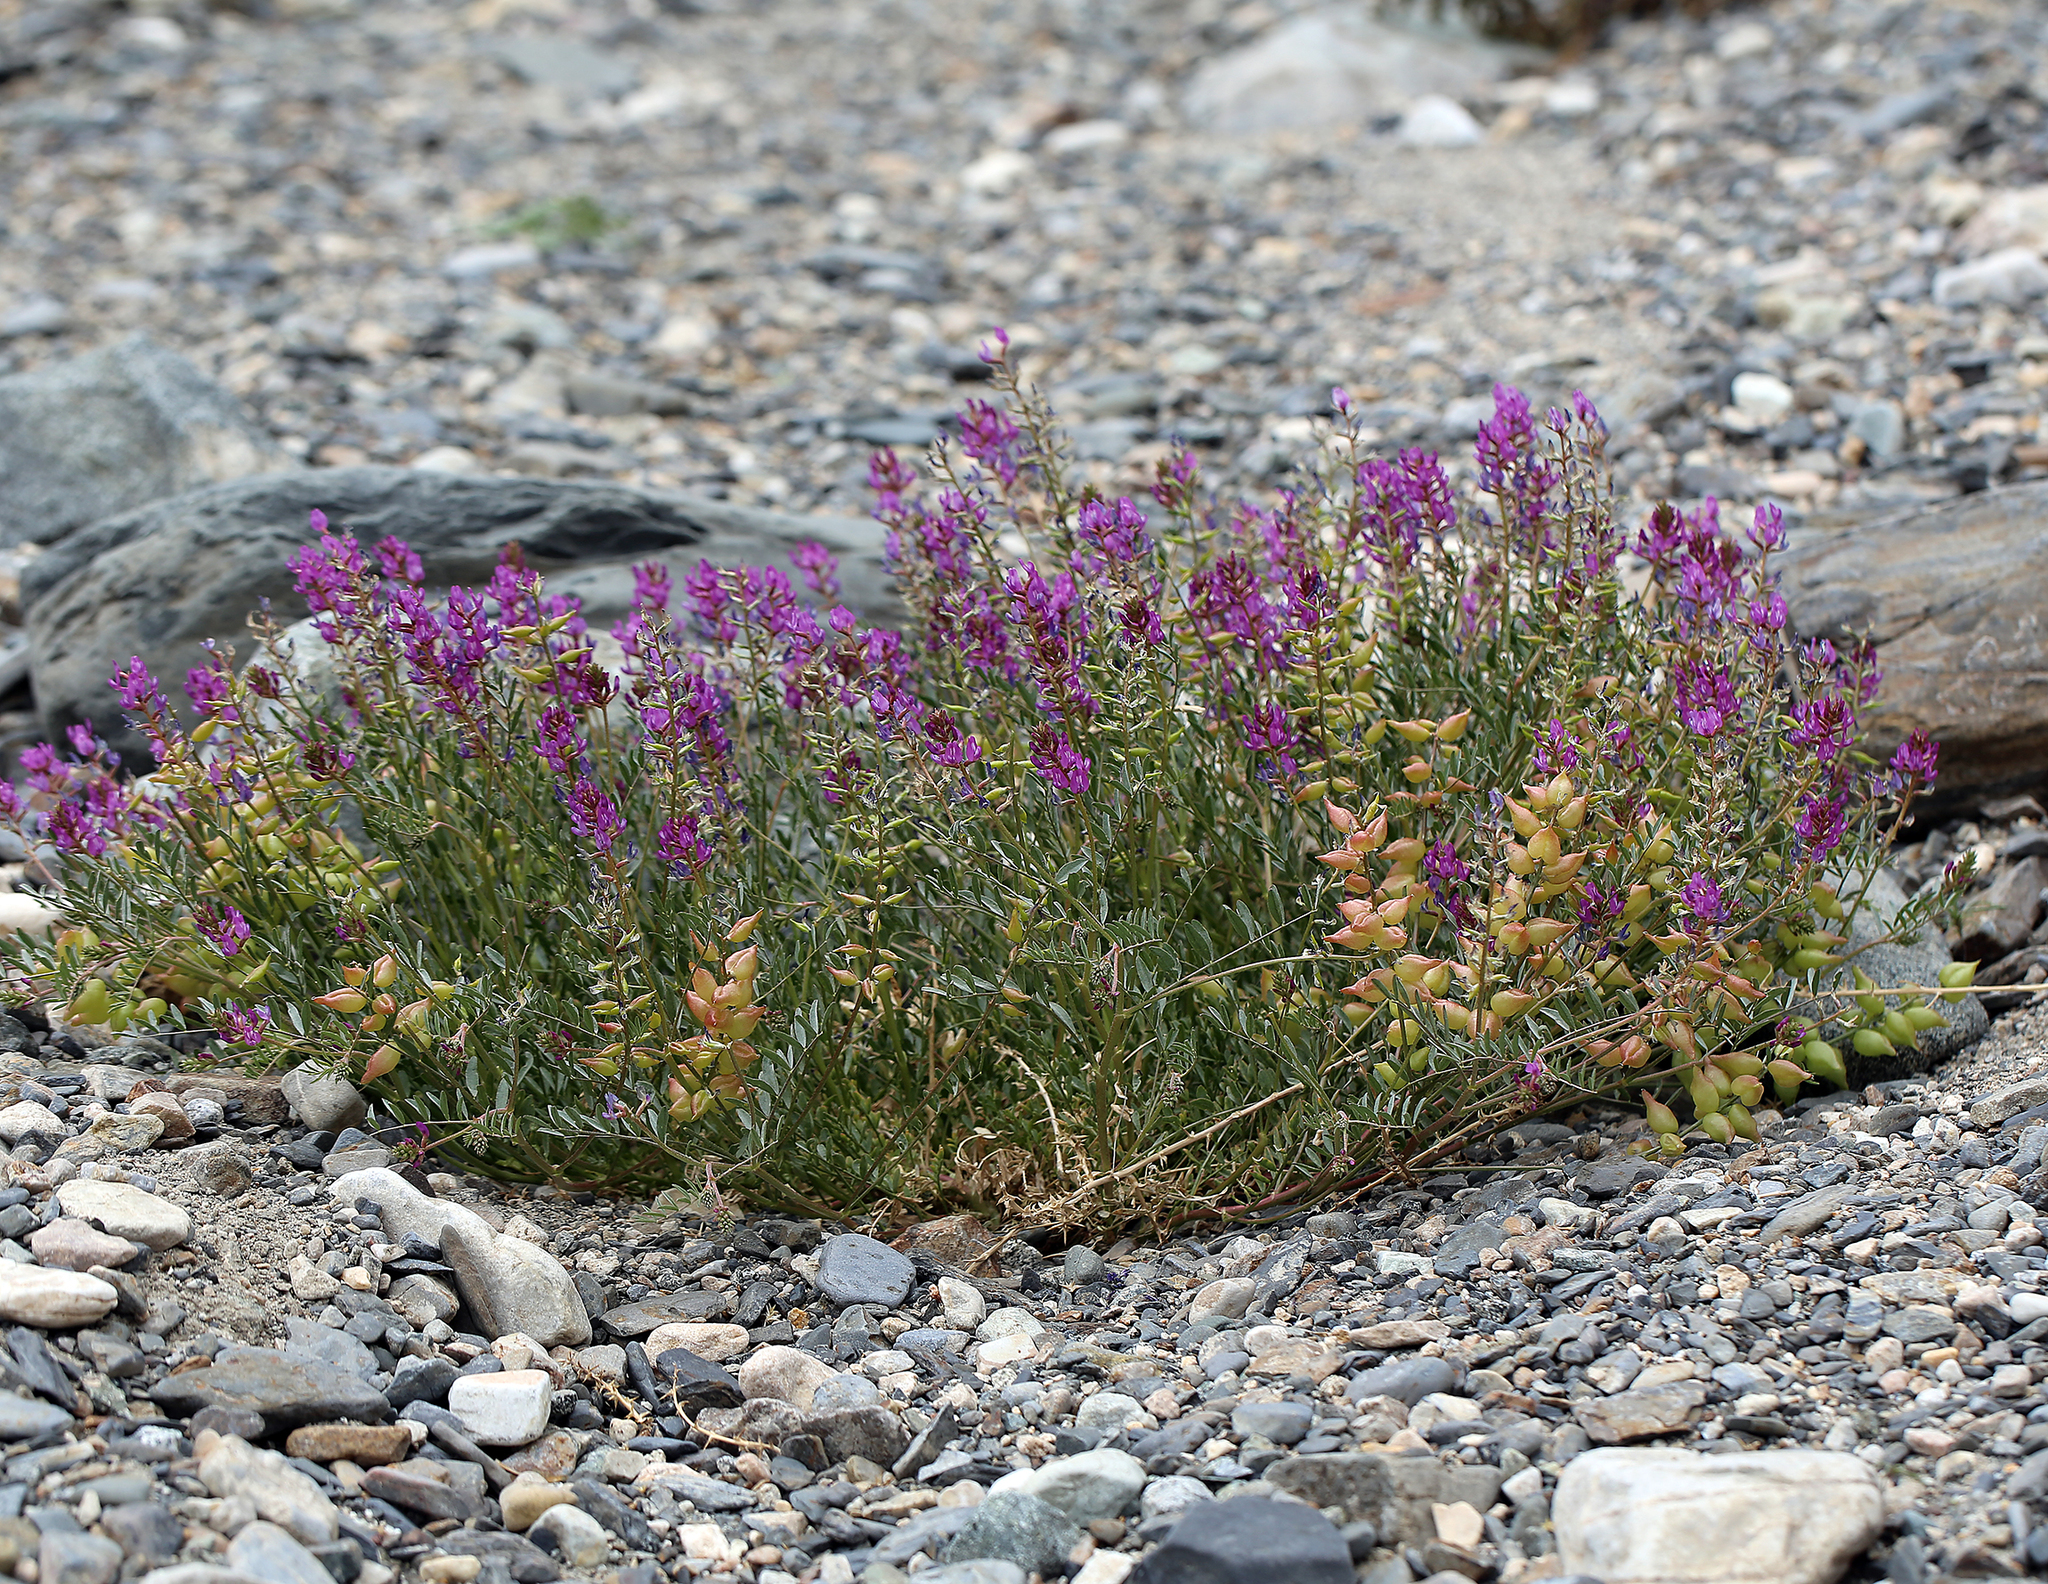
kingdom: Plantae
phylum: Tracheophyta
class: Magnoliopsida
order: Fabales
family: Fabaceae
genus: Astragalus
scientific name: Astragalus lentiginosus
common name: Freckled milkvetch
